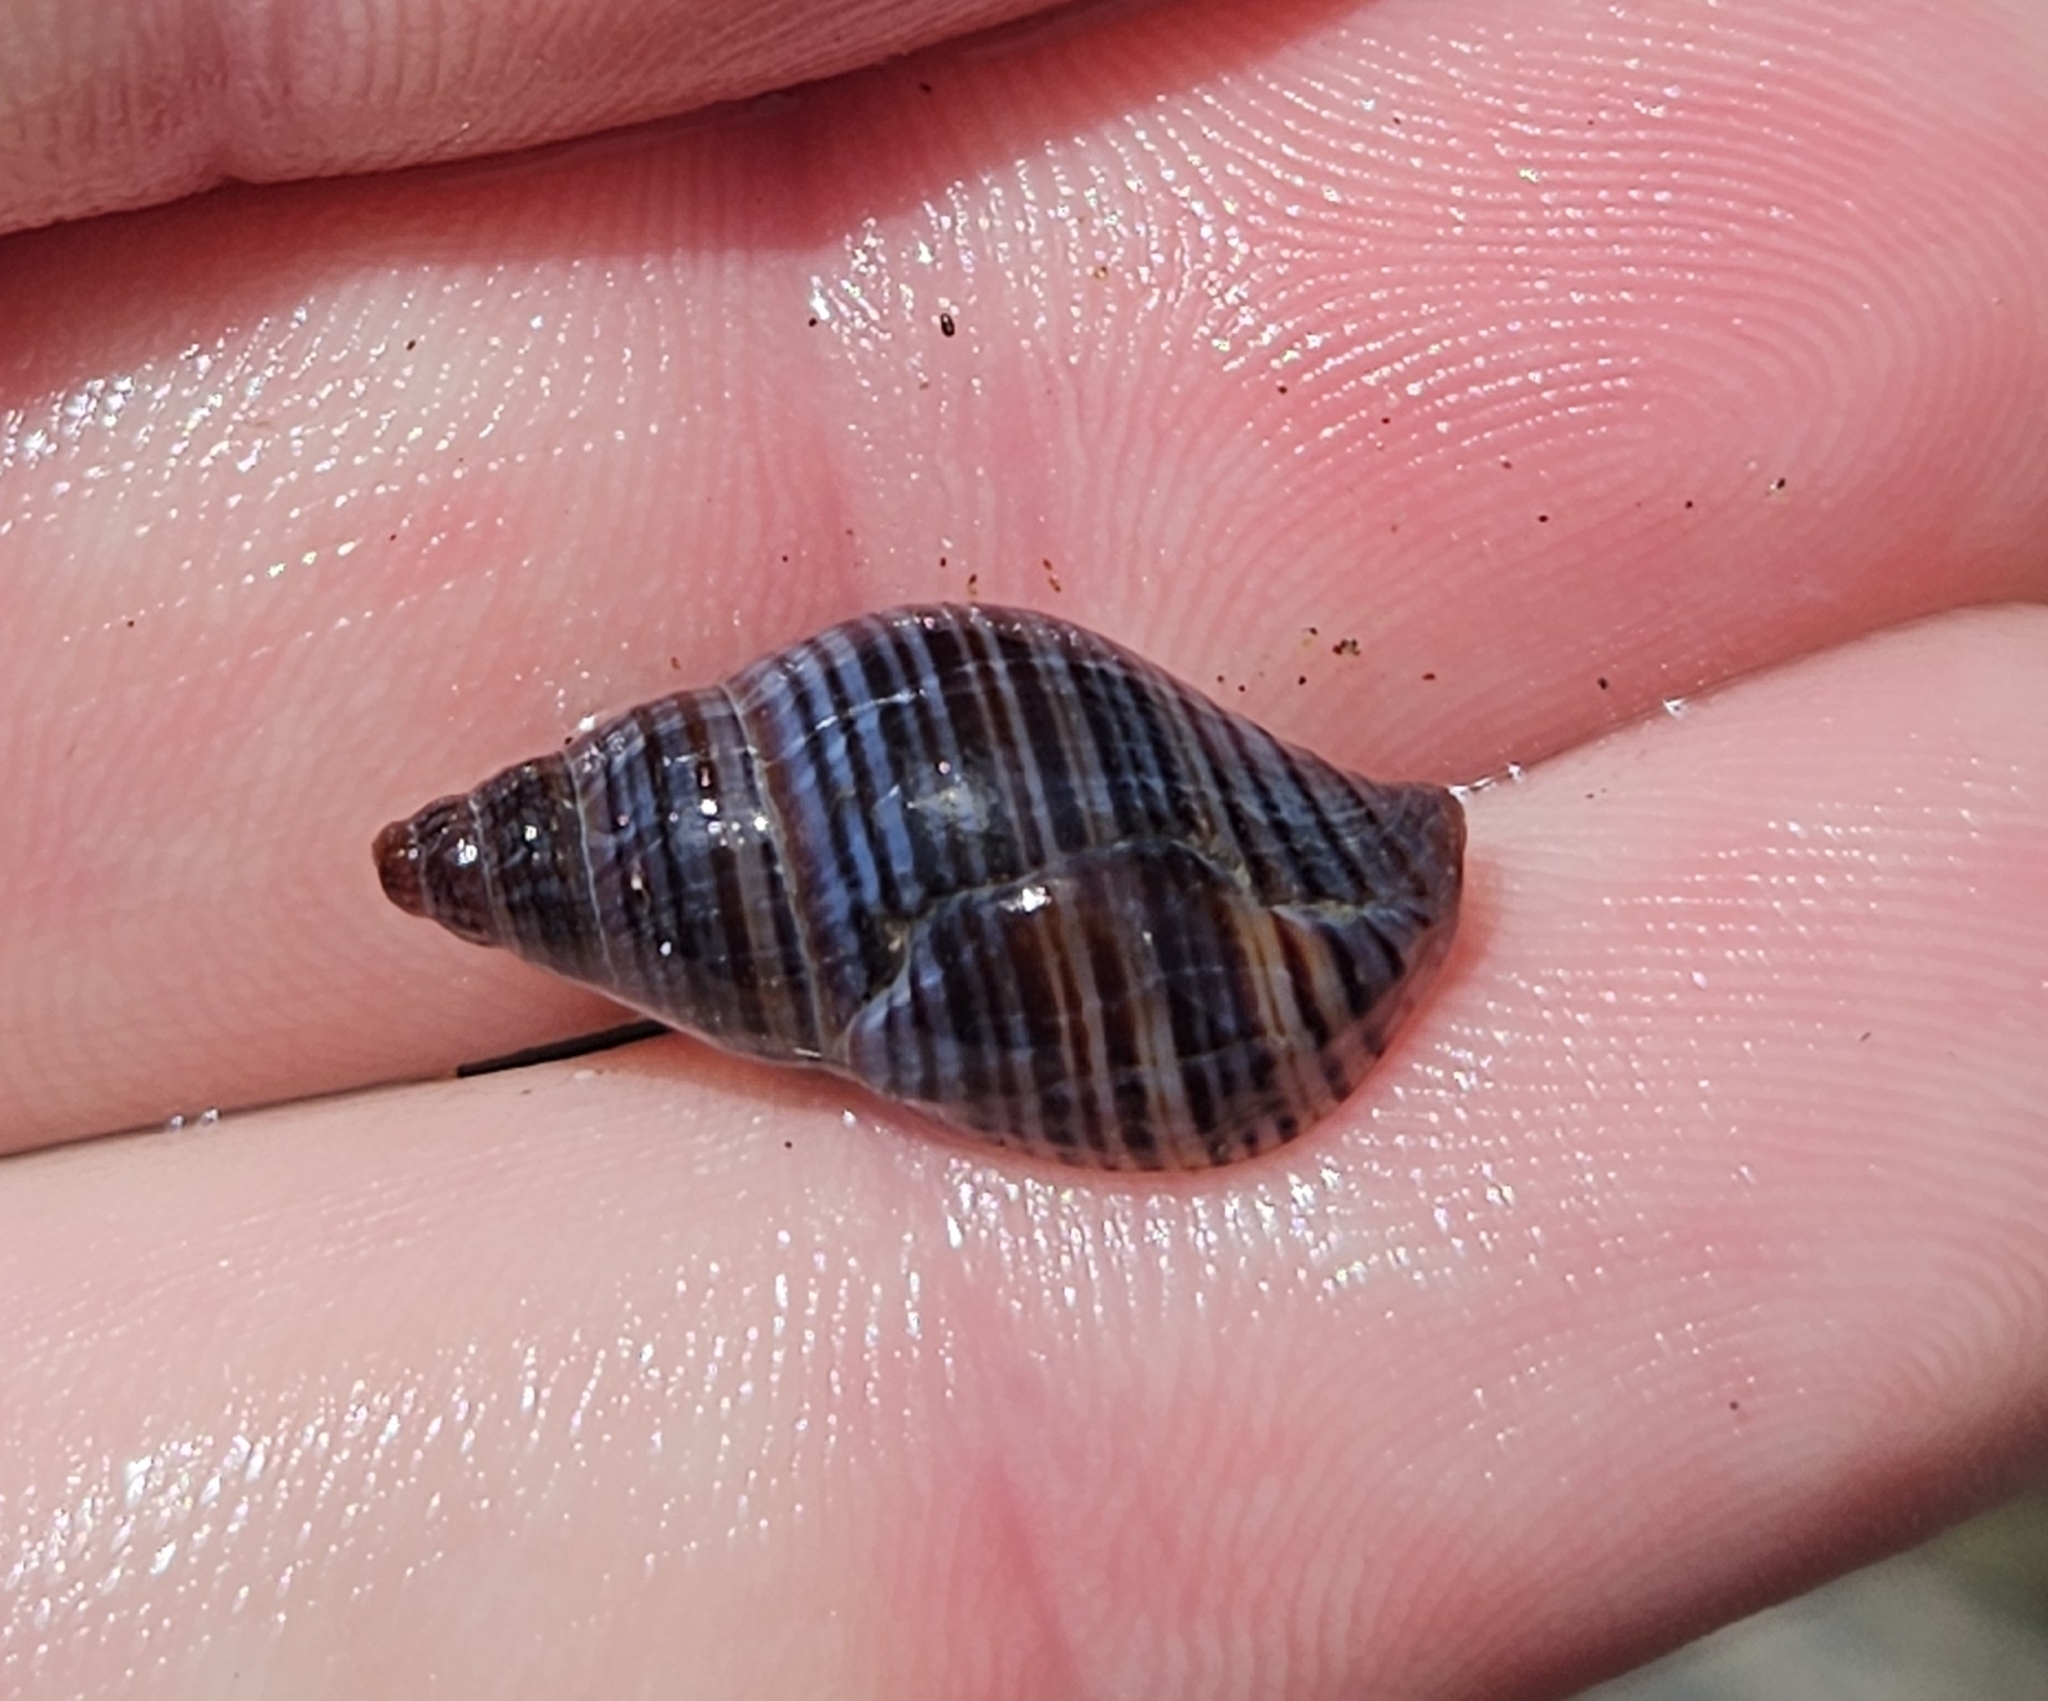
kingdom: Animalia
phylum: Mollusca
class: Gastropoda
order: Neogastropoda
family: Tudiclidae
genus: Buccinulum
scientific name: Buccinulum littorinoides
